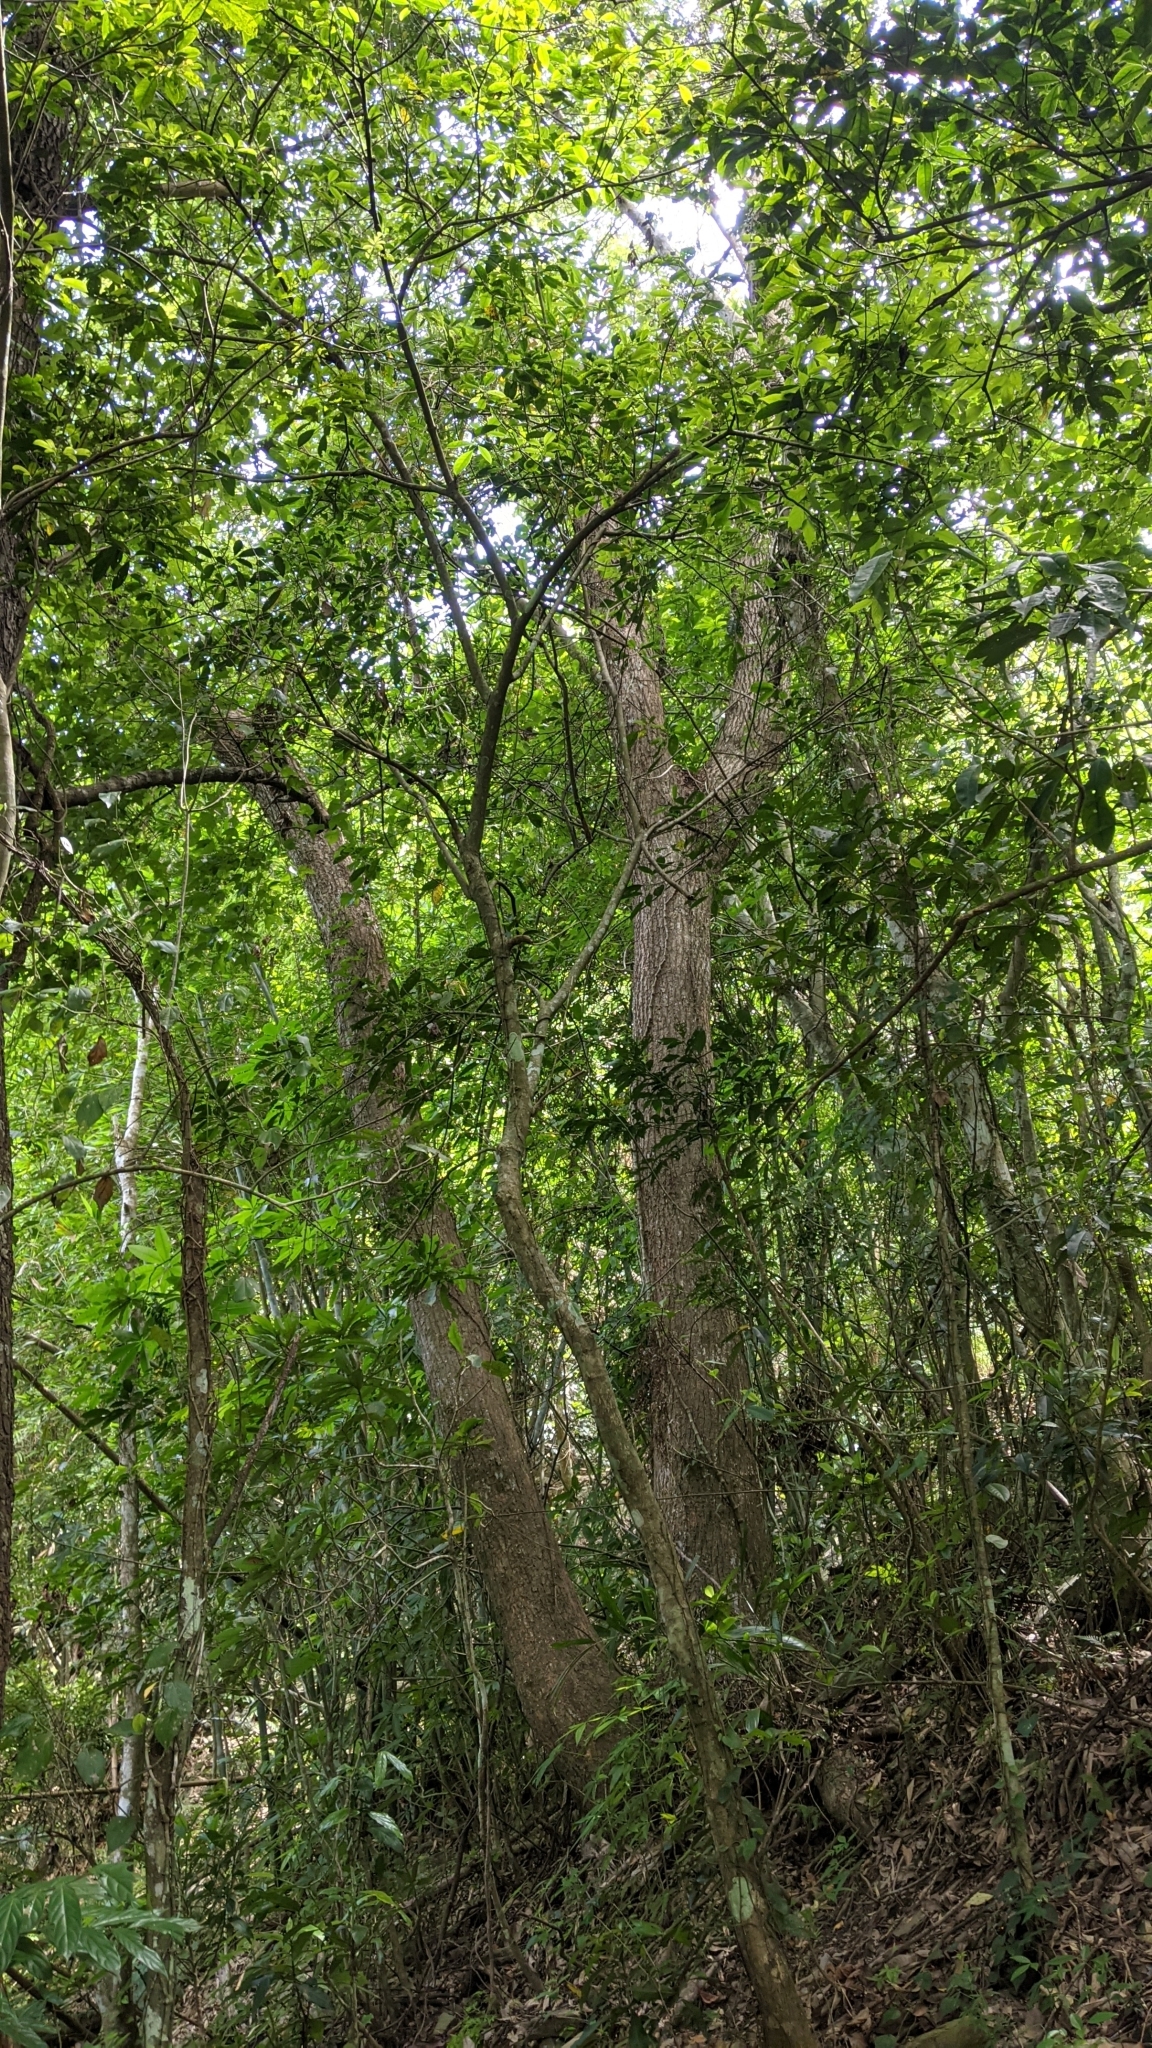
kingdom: Plantae
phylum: Tracheophyta
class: Magnoliopsida
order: Laurales
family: Lauraceae
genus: Cinnamomum
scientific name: Cinnamomum camphora
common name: Camphortree
